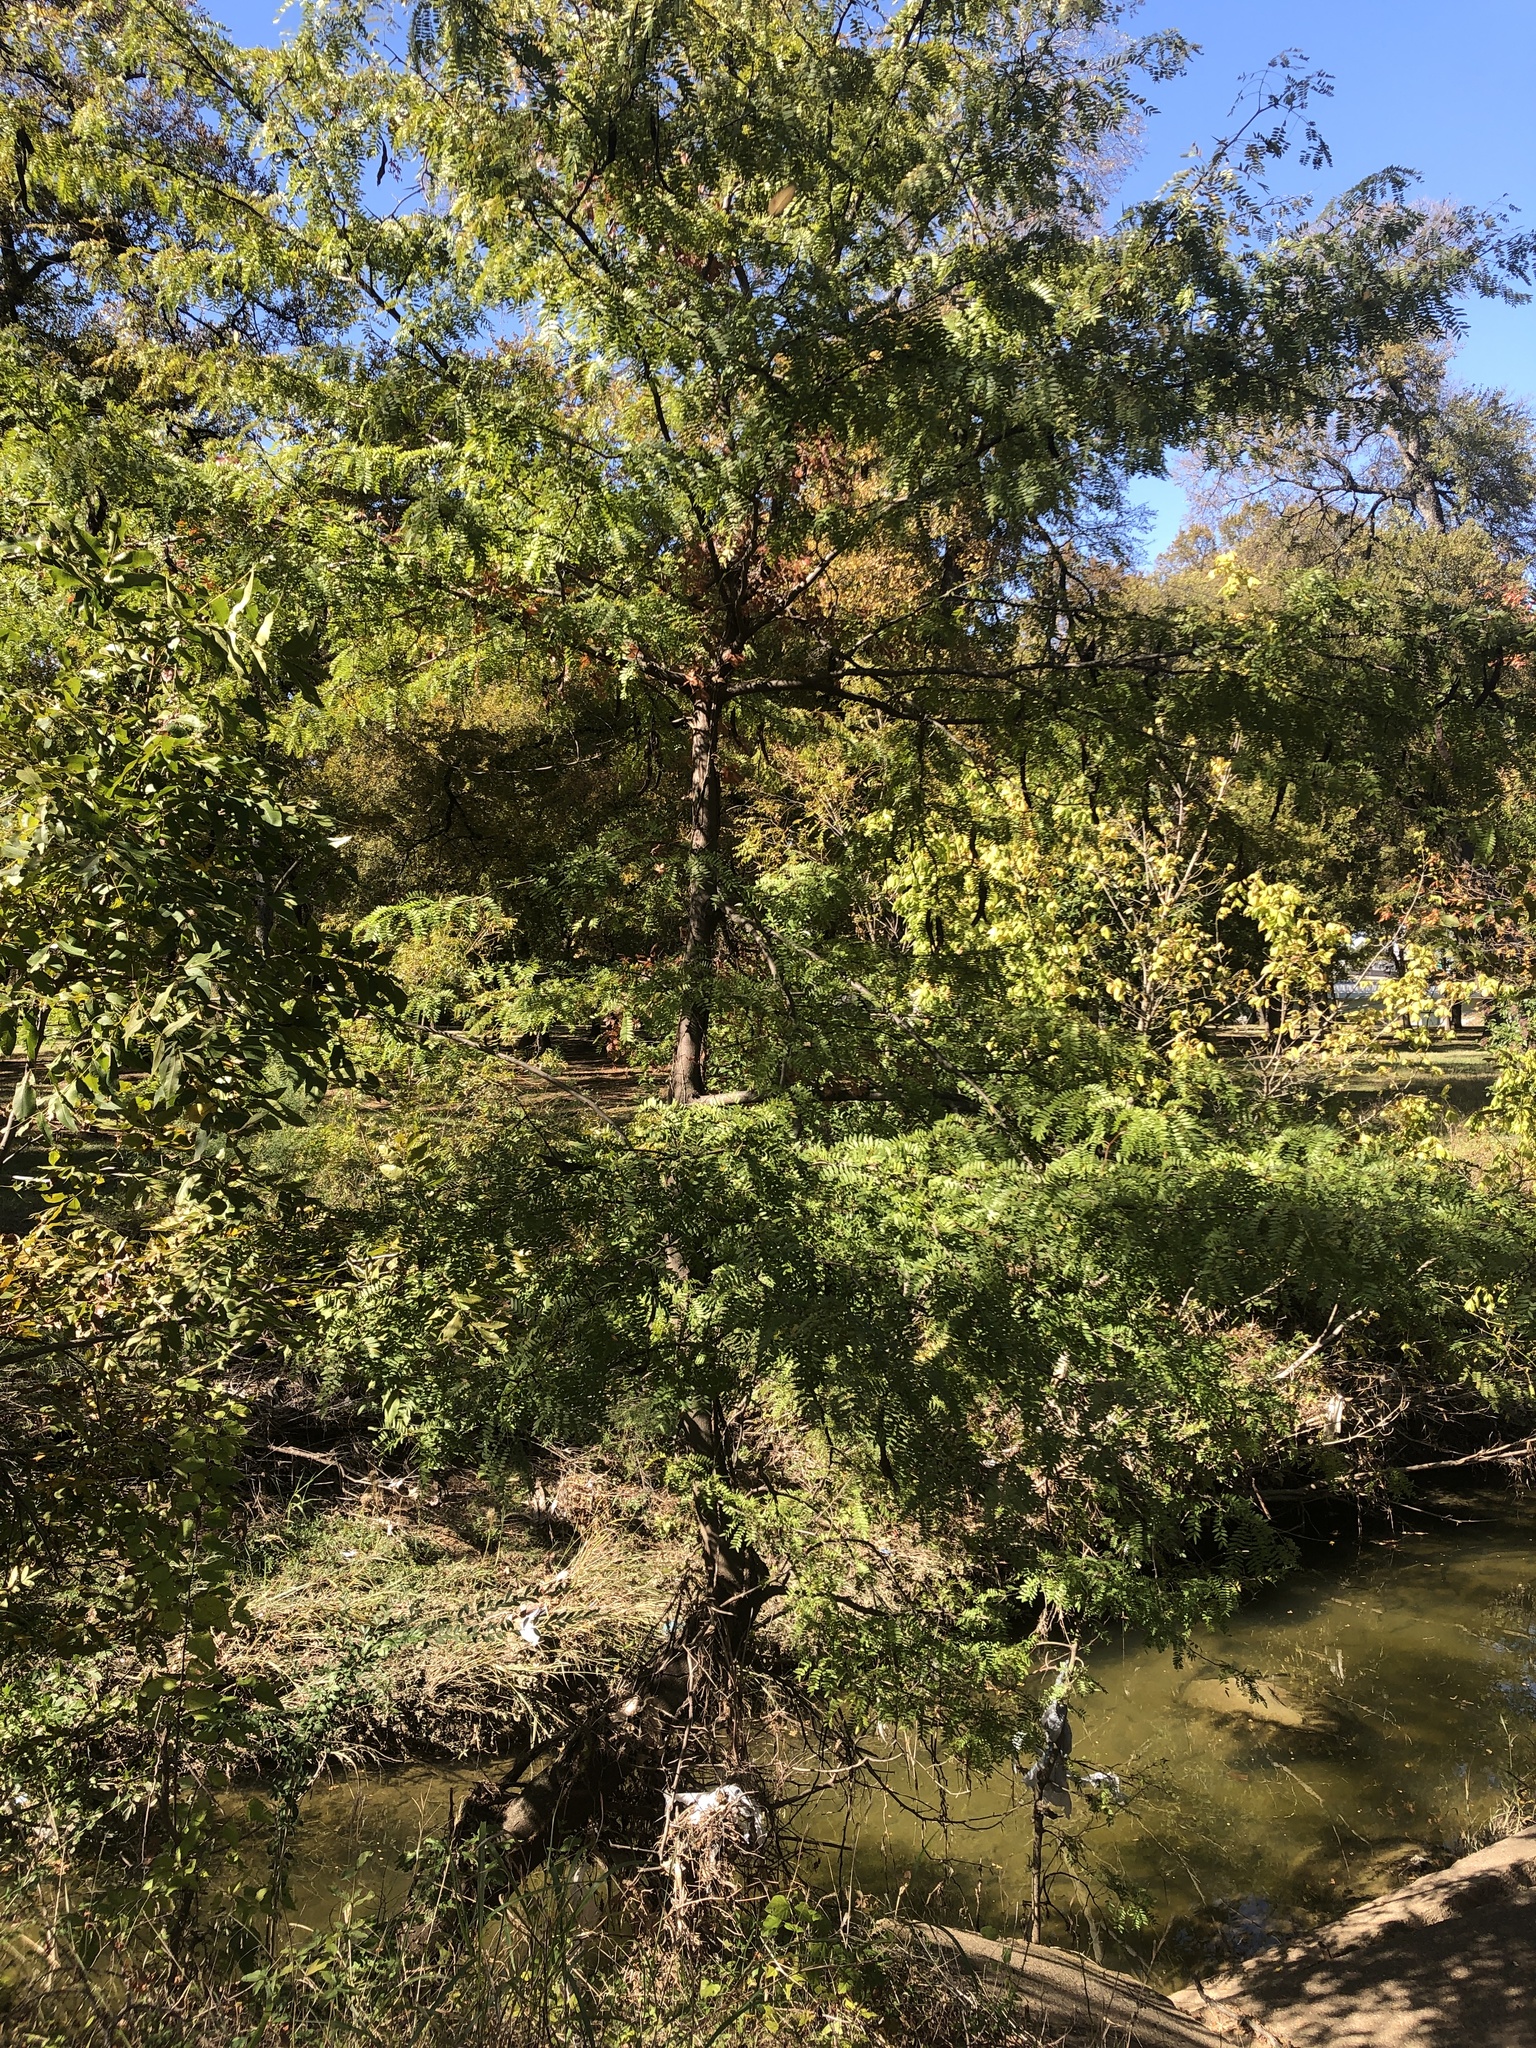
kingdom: Plantae
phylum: Tracheophyta
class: Magnoliopsida
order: Fabales
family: Fabaceae
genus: Gleditsia
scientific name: Gleditsia triacanthos
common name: Common honeylocust
